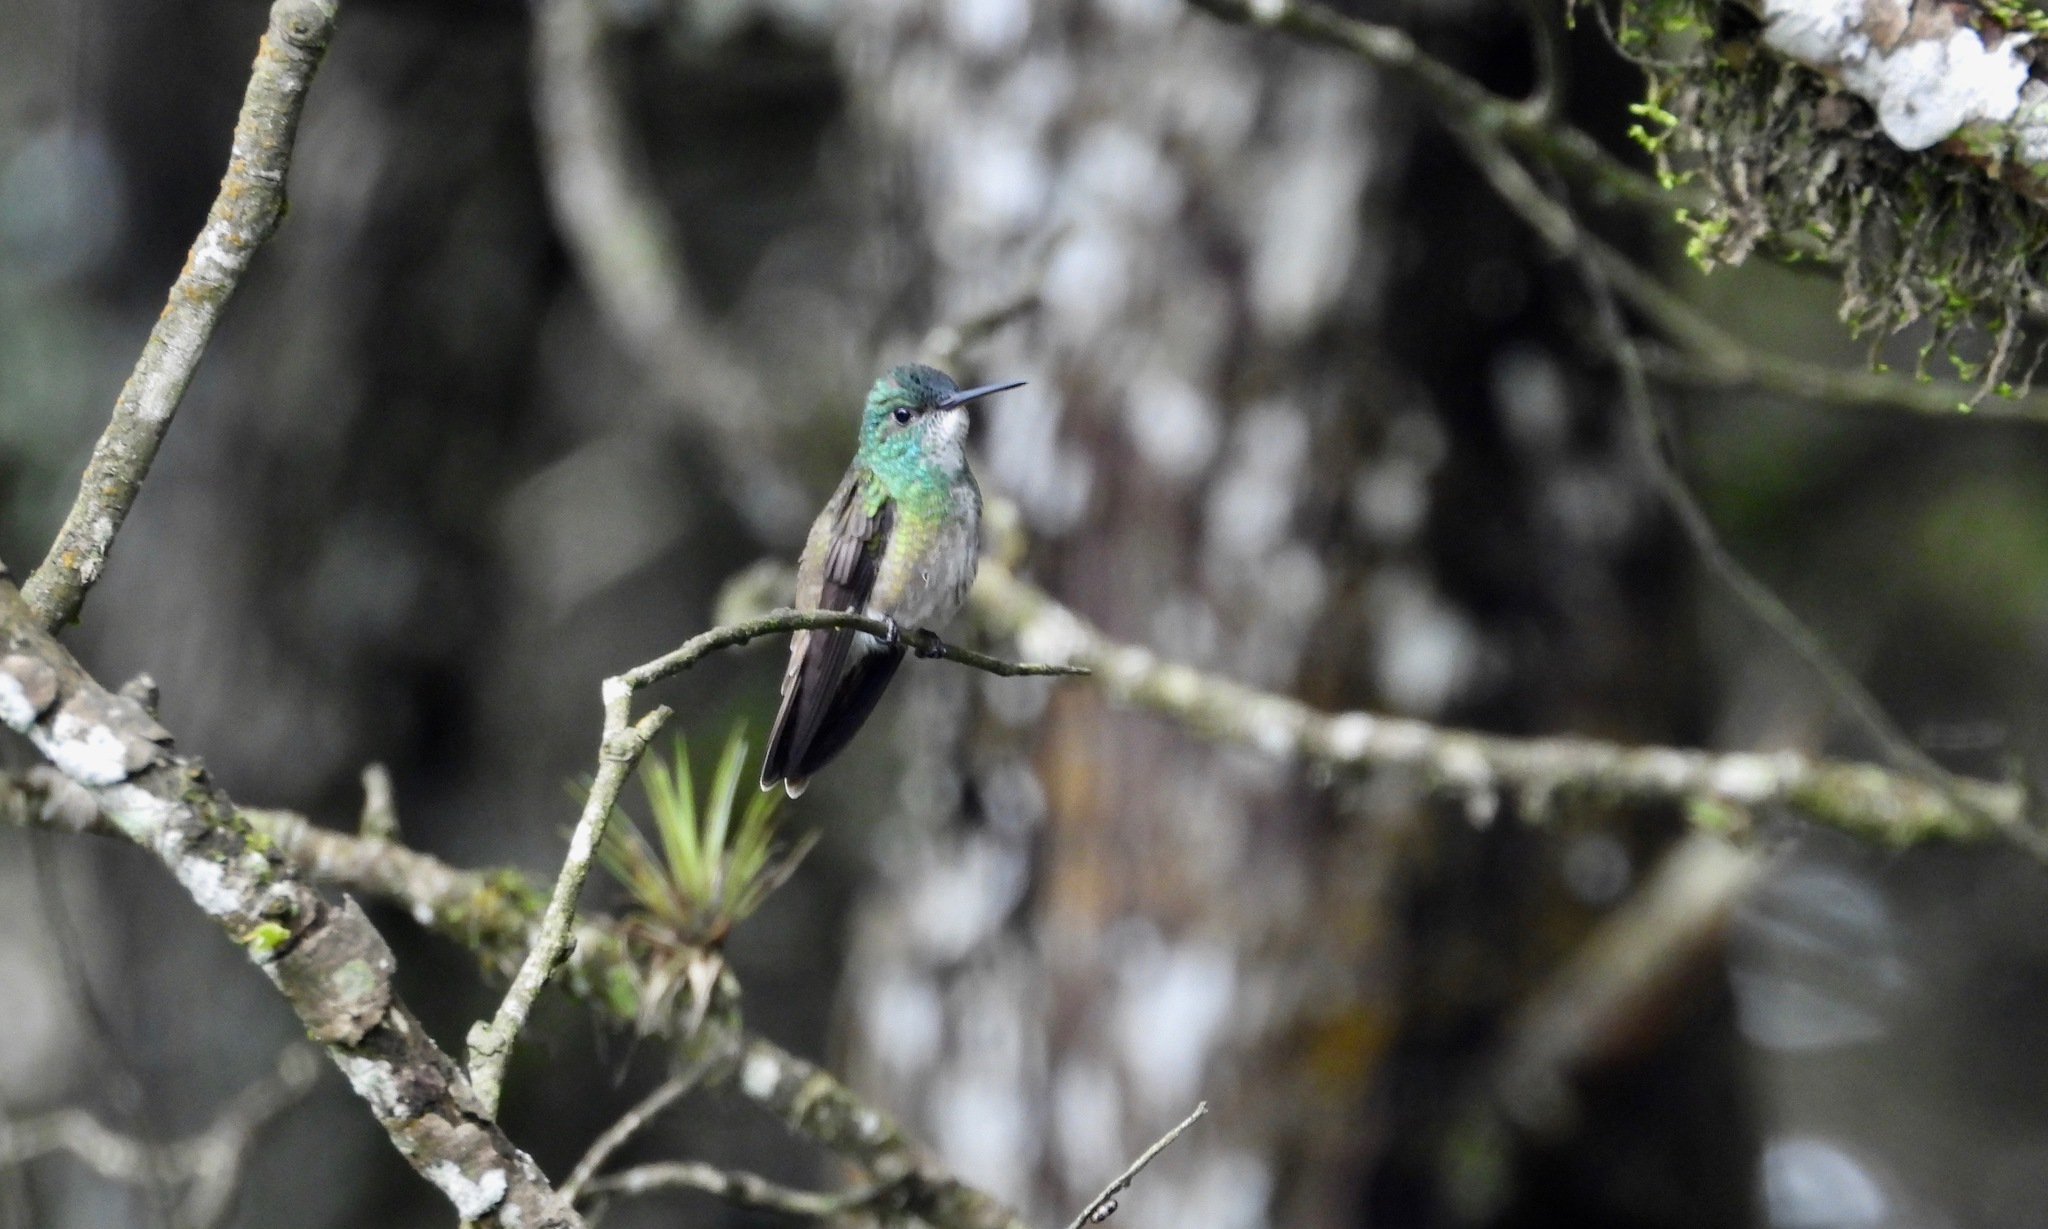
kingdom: Animalia
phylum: Chordata
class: Aves
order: Apodiformes
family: Trochilidae
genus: Saucerottia
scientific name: Saucerottia cyanocephala
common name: Azure-crowned hummingbird
